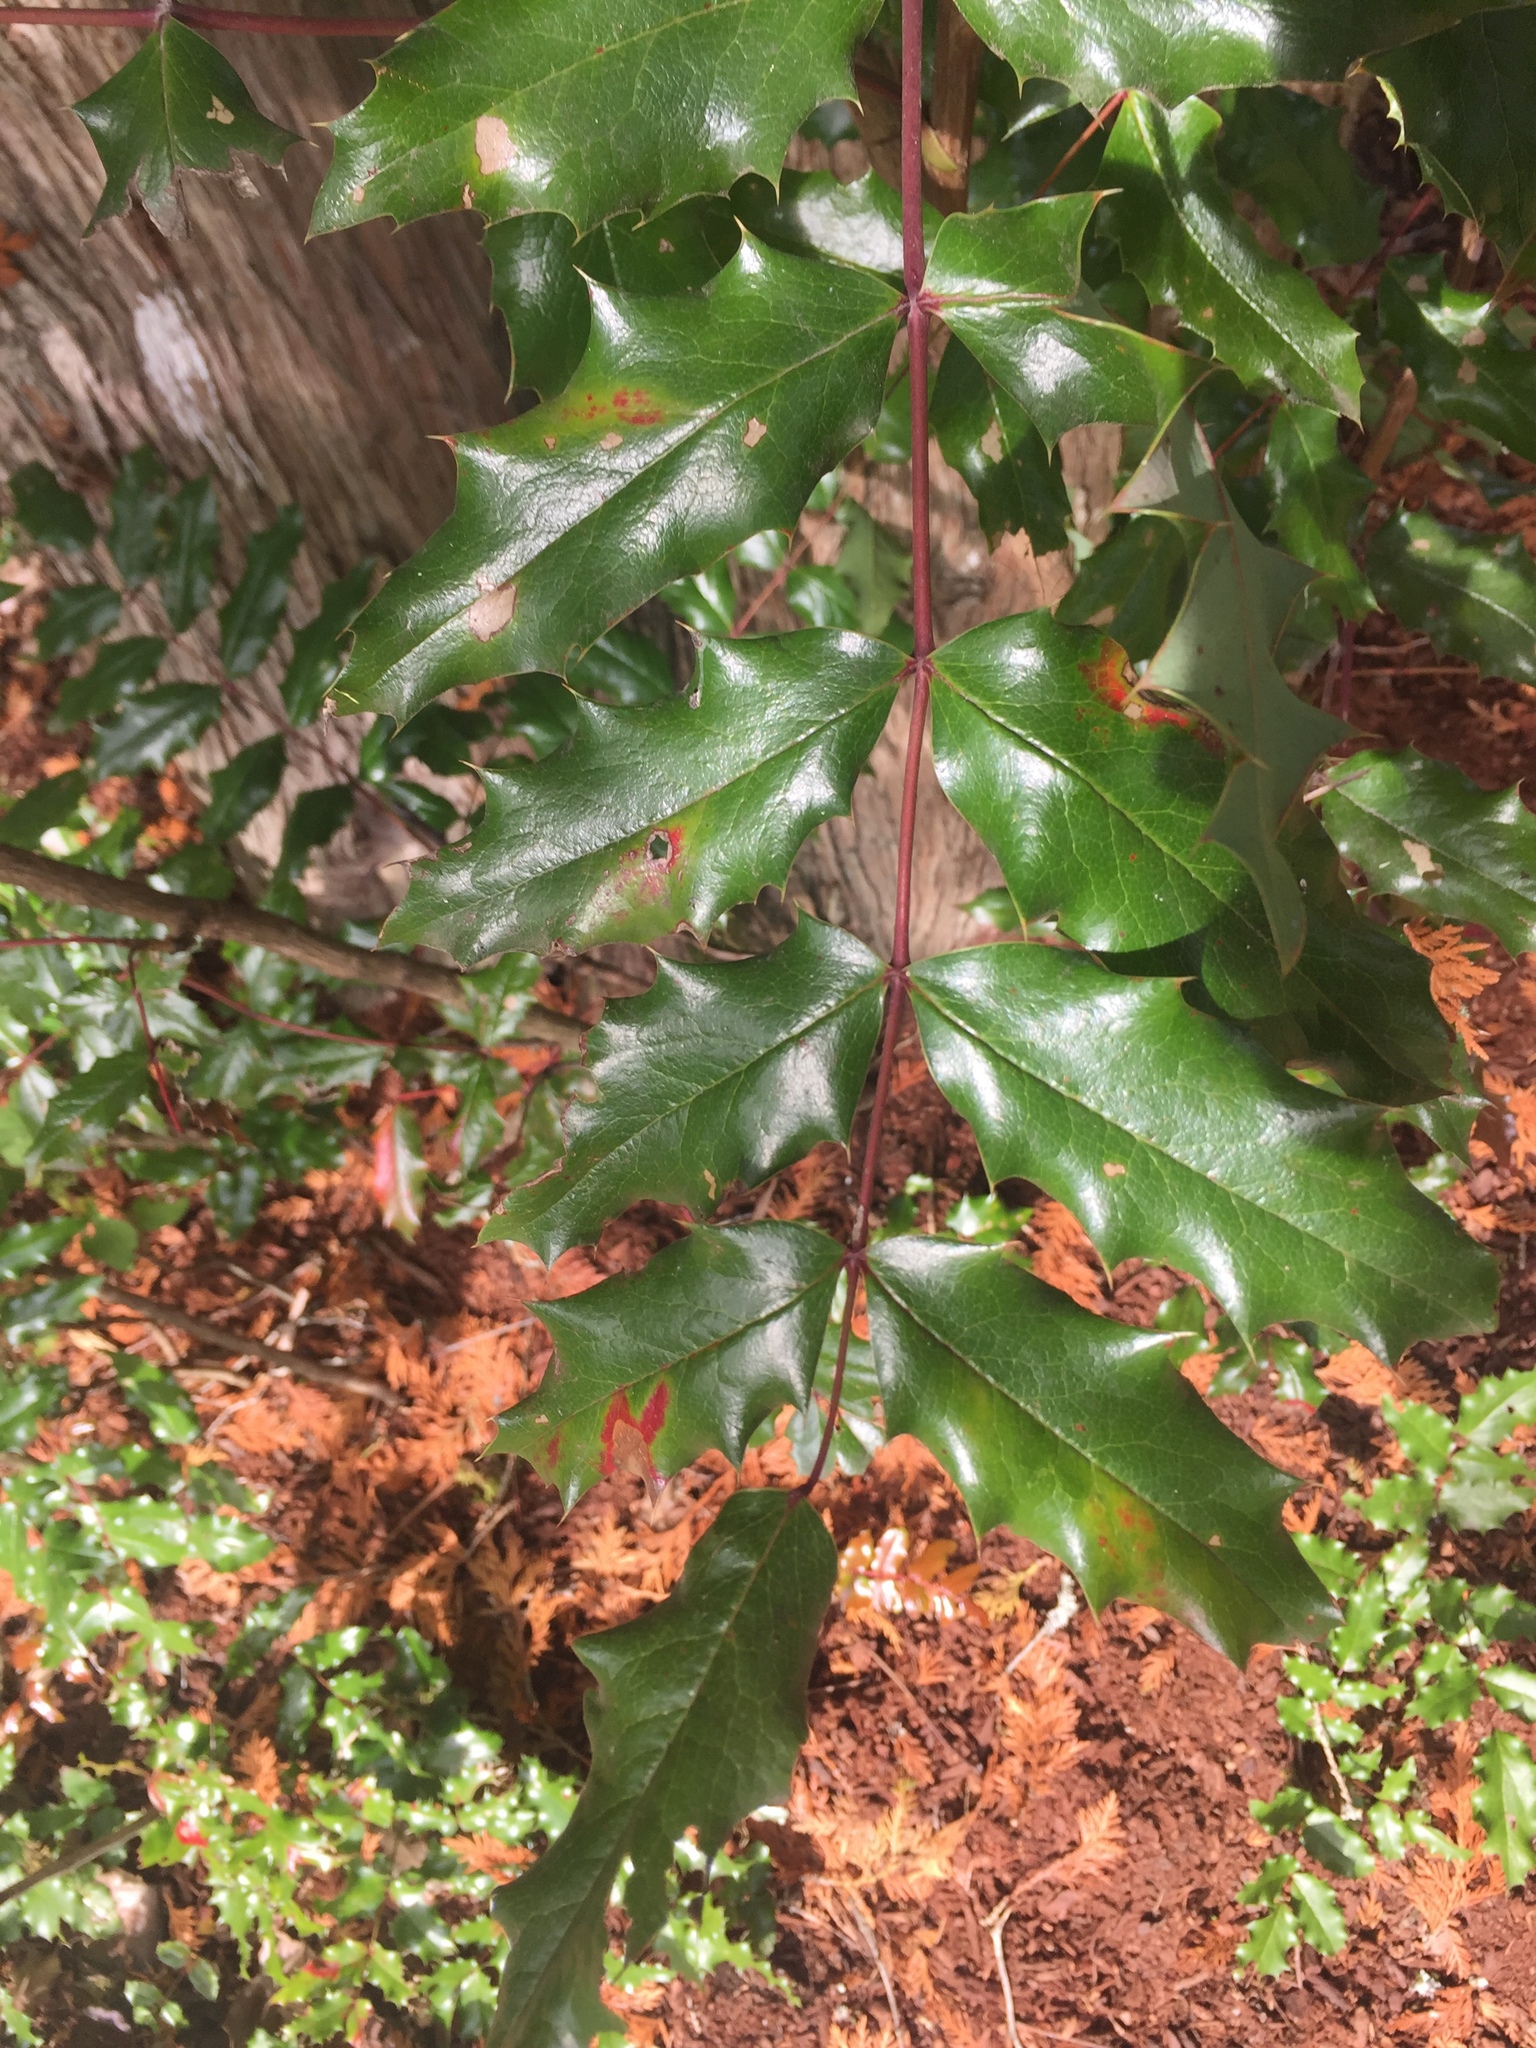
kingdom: Plantae
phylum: Tracheophyta
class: Magnoliopsida
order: Ranunculales
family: Berberidaceae
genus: Mahonia
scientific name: Mahonia aquifolium
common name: Oregon-grape
